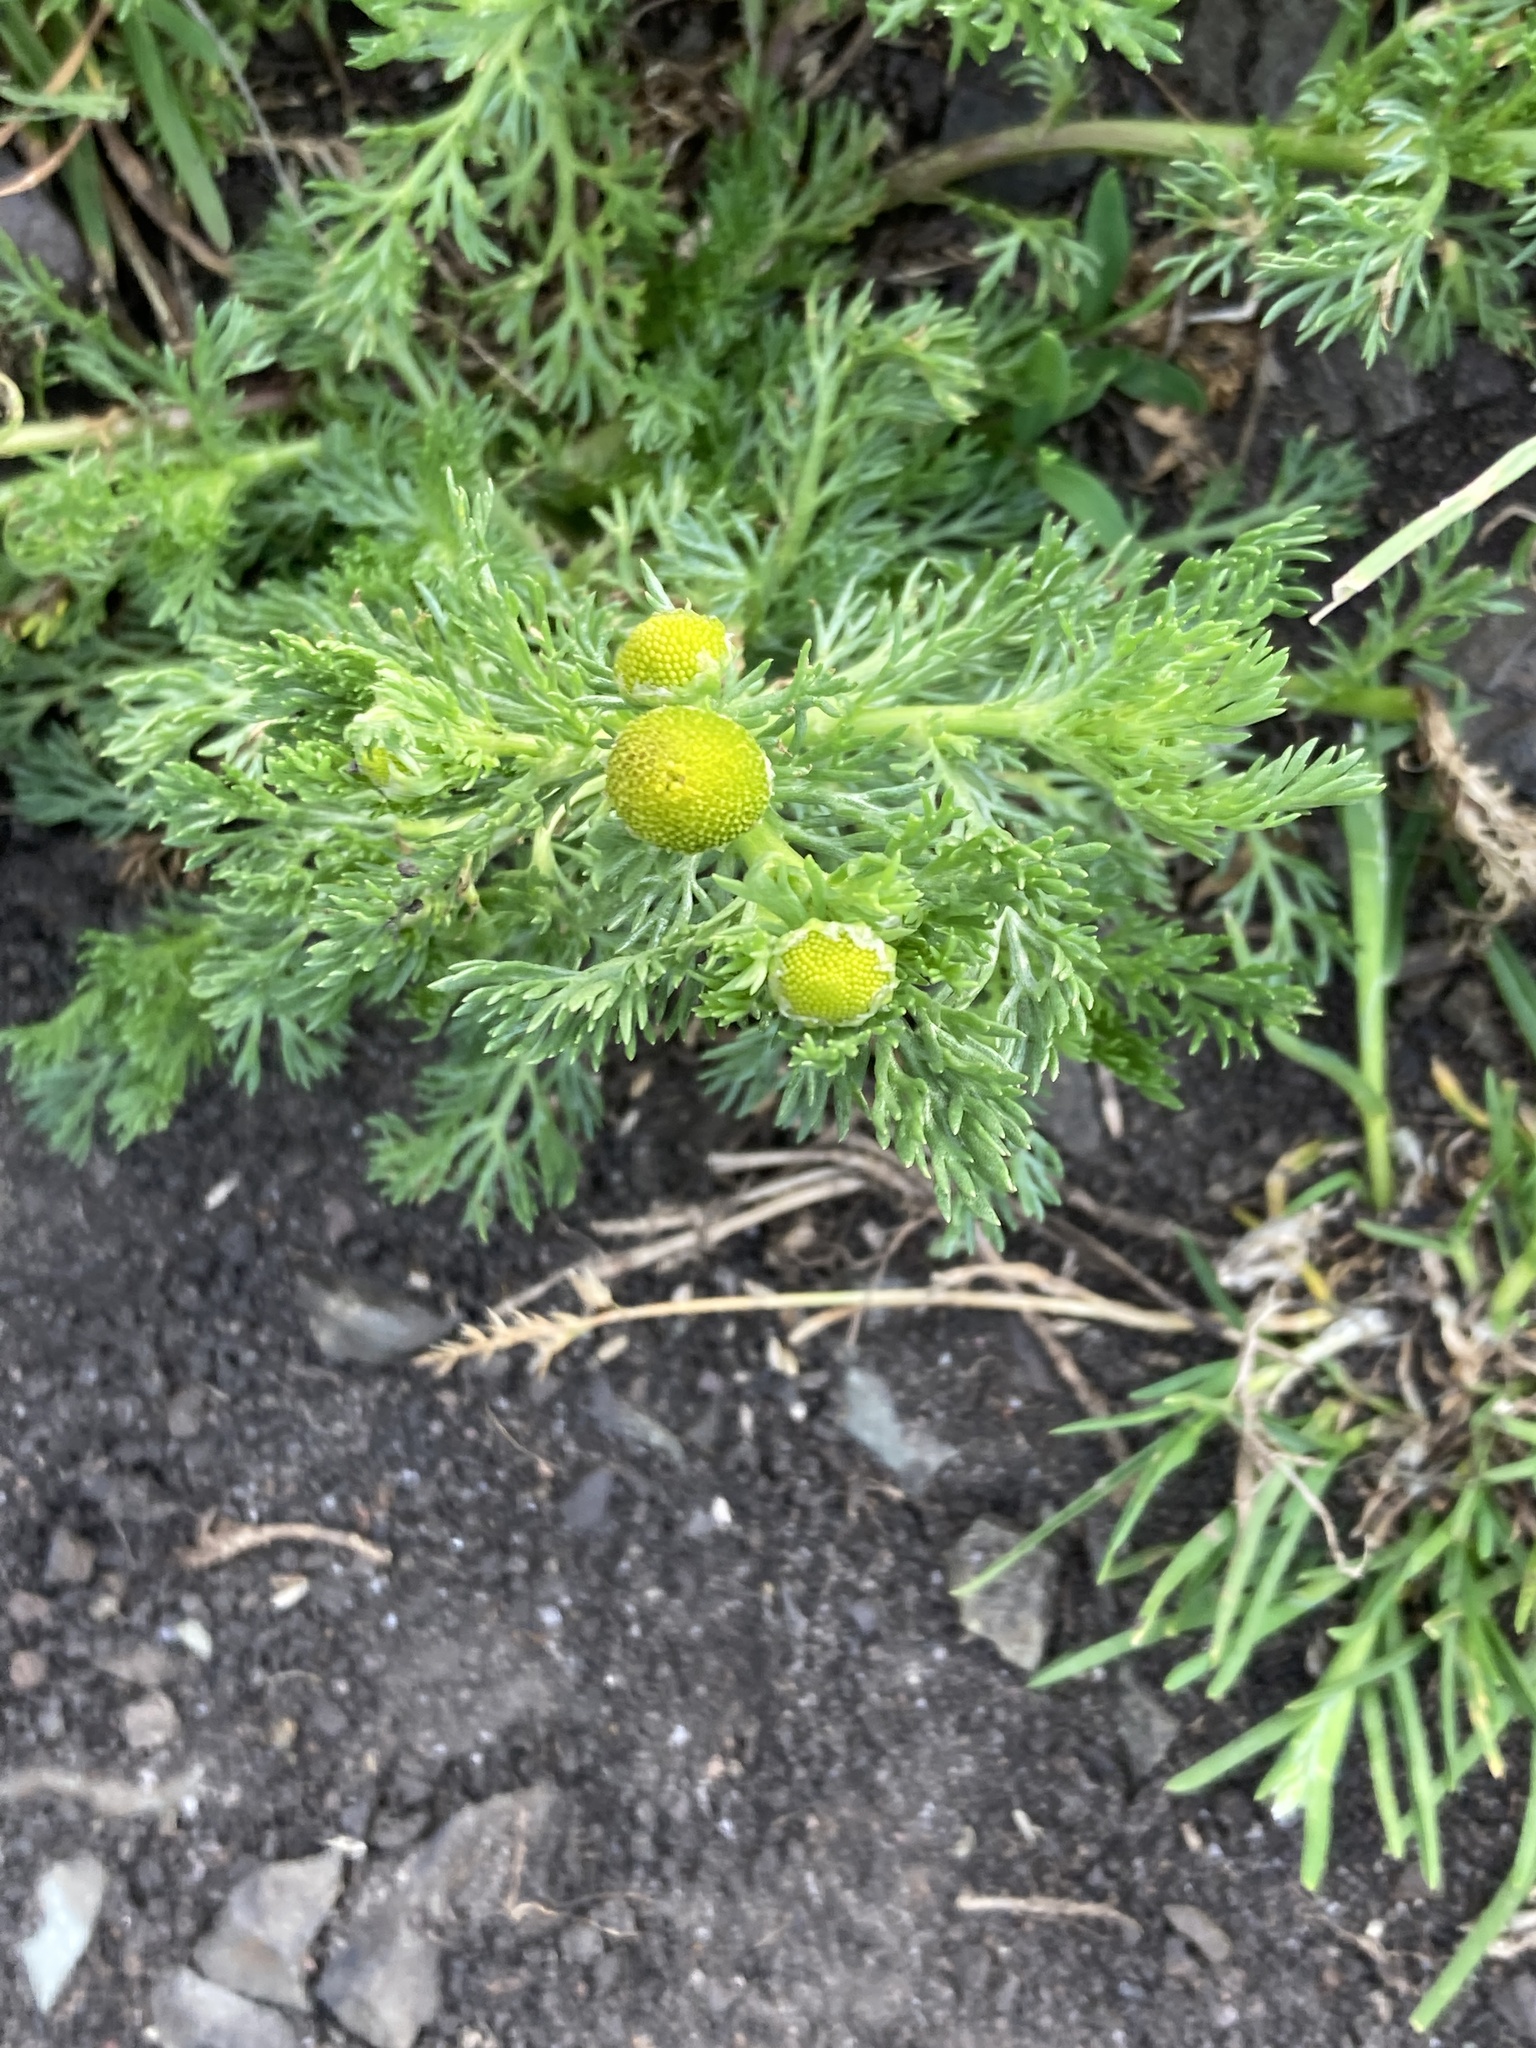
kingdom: Plantae
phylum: Tracheophyta
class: Magnoliopsida
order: Asterales
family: Asteraceae
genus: Matricaria
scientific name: Matricaria discoidea
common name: Disc mayweed
